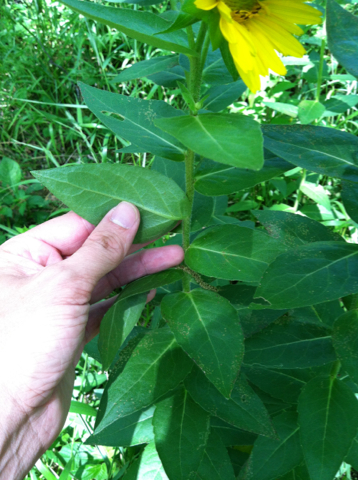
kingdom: Plantae
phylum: Tracheophyta
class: Magnoliopsida
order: Asterales
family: Asteraceae
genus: Silphium
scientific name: Silphium radula
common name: Roughleaf rosinweed
